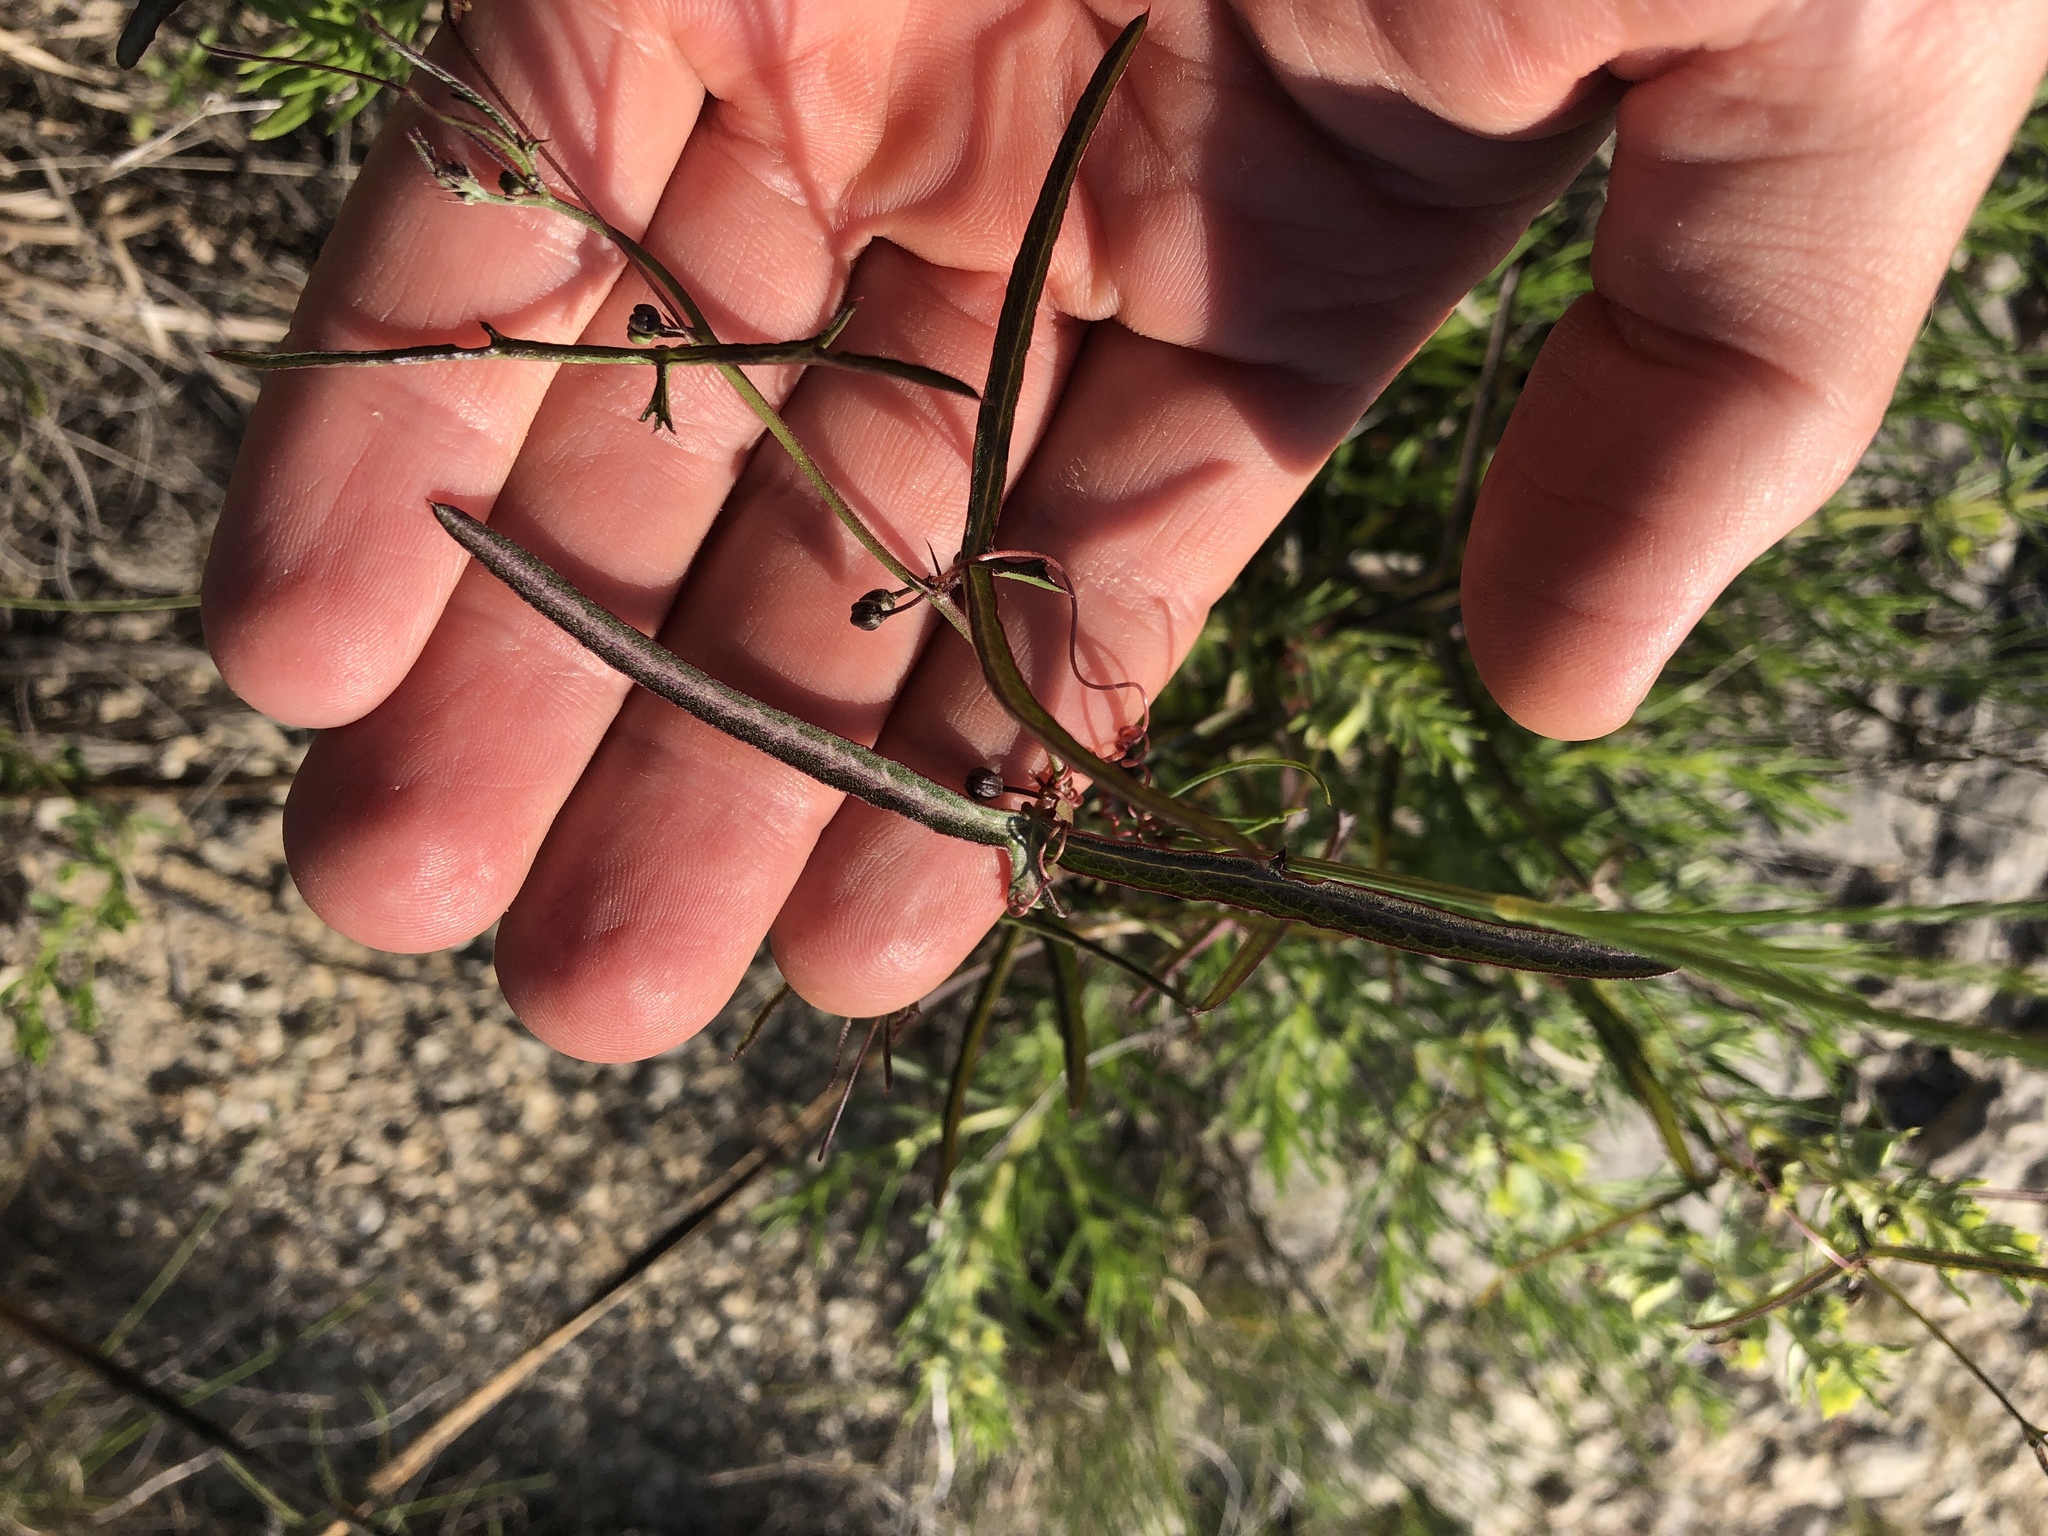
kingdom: Plantae
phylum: Tracheophyta
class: Magnoliopsida
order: Malpighiales
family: Passifloraceae
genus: Passiflora
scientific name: Passiflora tenuiloba
